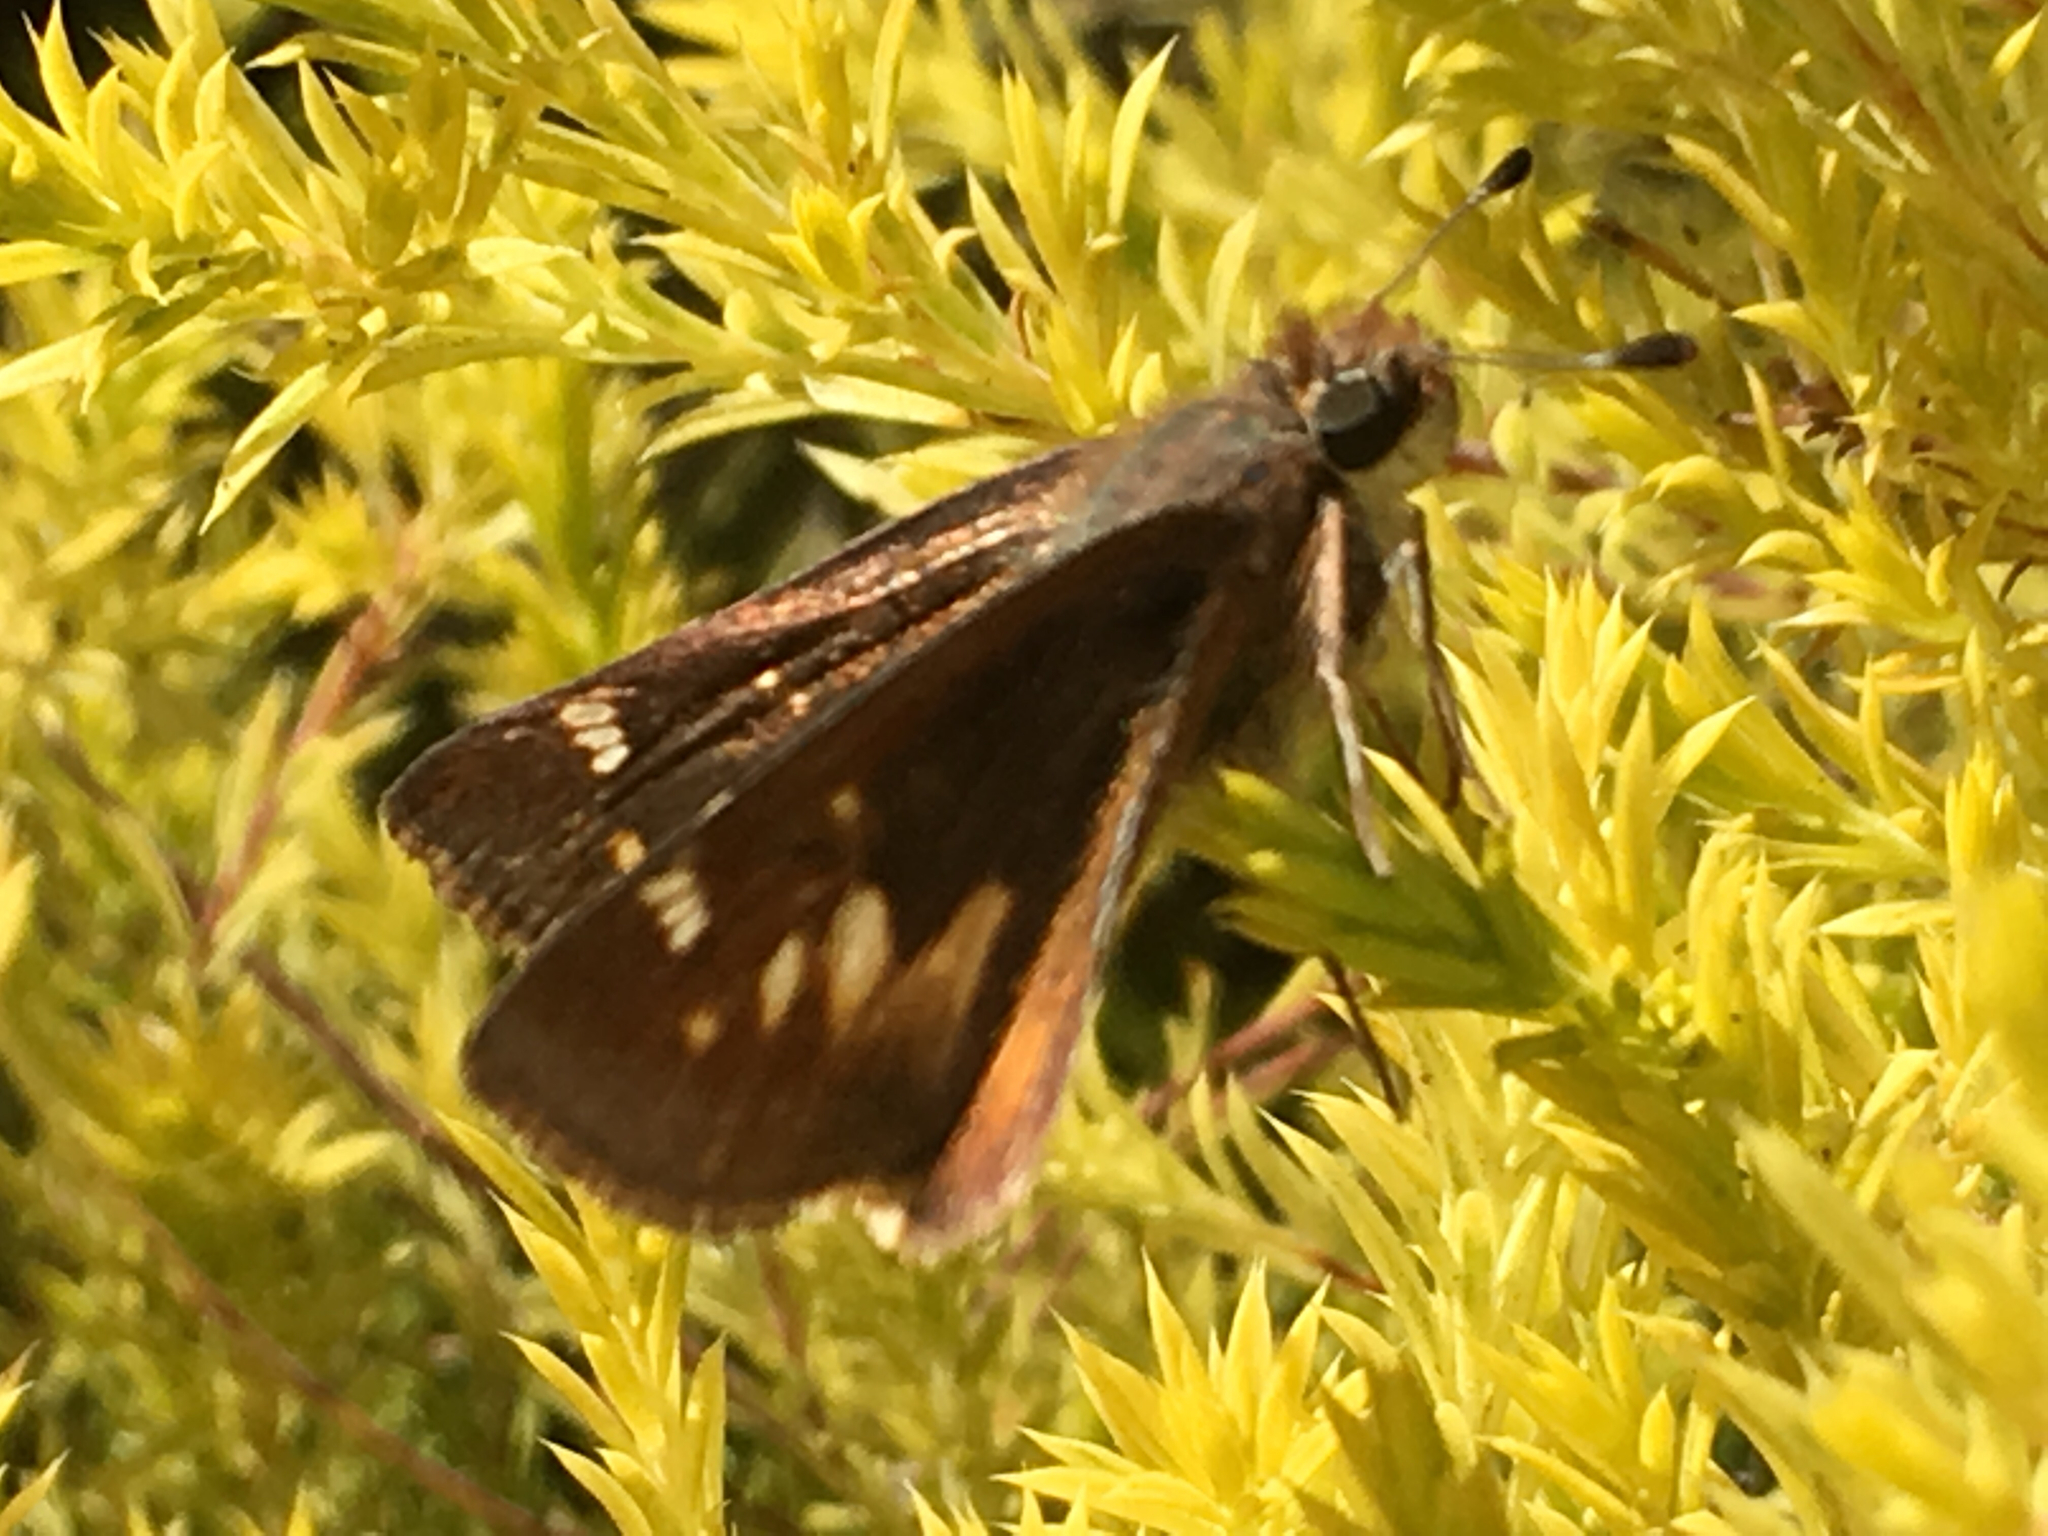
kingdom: Animalia
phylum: Arthropoda
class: Insecta
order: Lepidoptera
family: Hesperiidae
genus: Lon
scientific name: Lon melane
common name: Umber skipper
